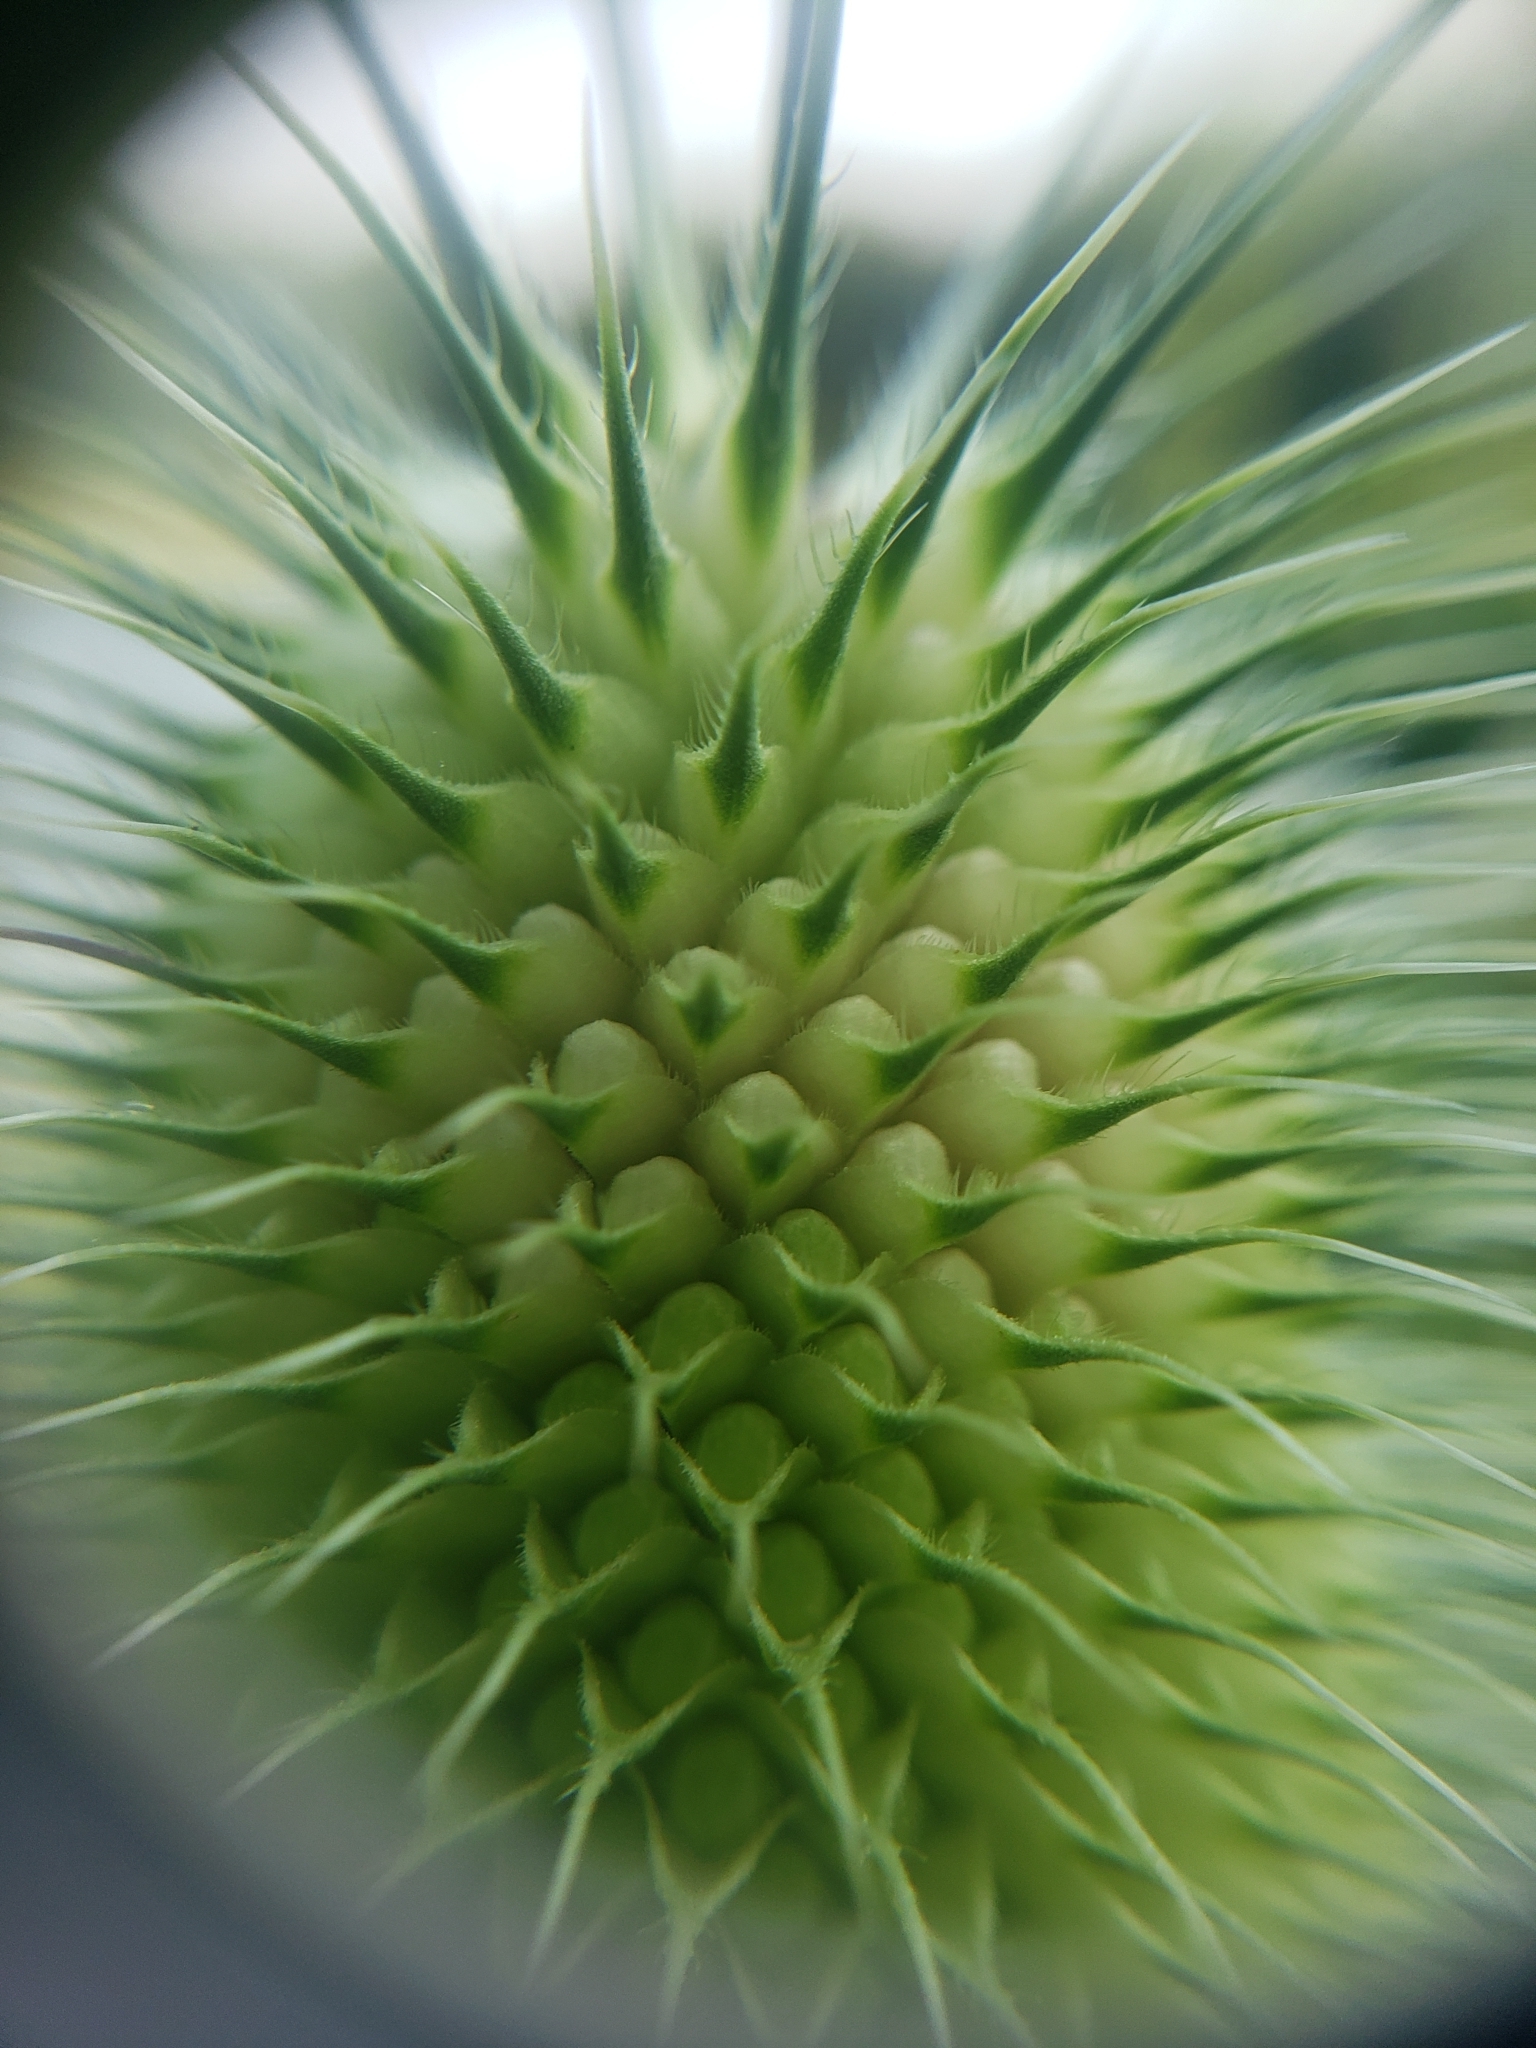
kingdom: Plantae
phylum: Tracheophyta
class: Magnoliopsida
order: Dipsacales
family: Caprifoliaceae
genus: Dipsacus
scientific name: Dipsacus laciniatus
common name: Cut-leaved teasel
